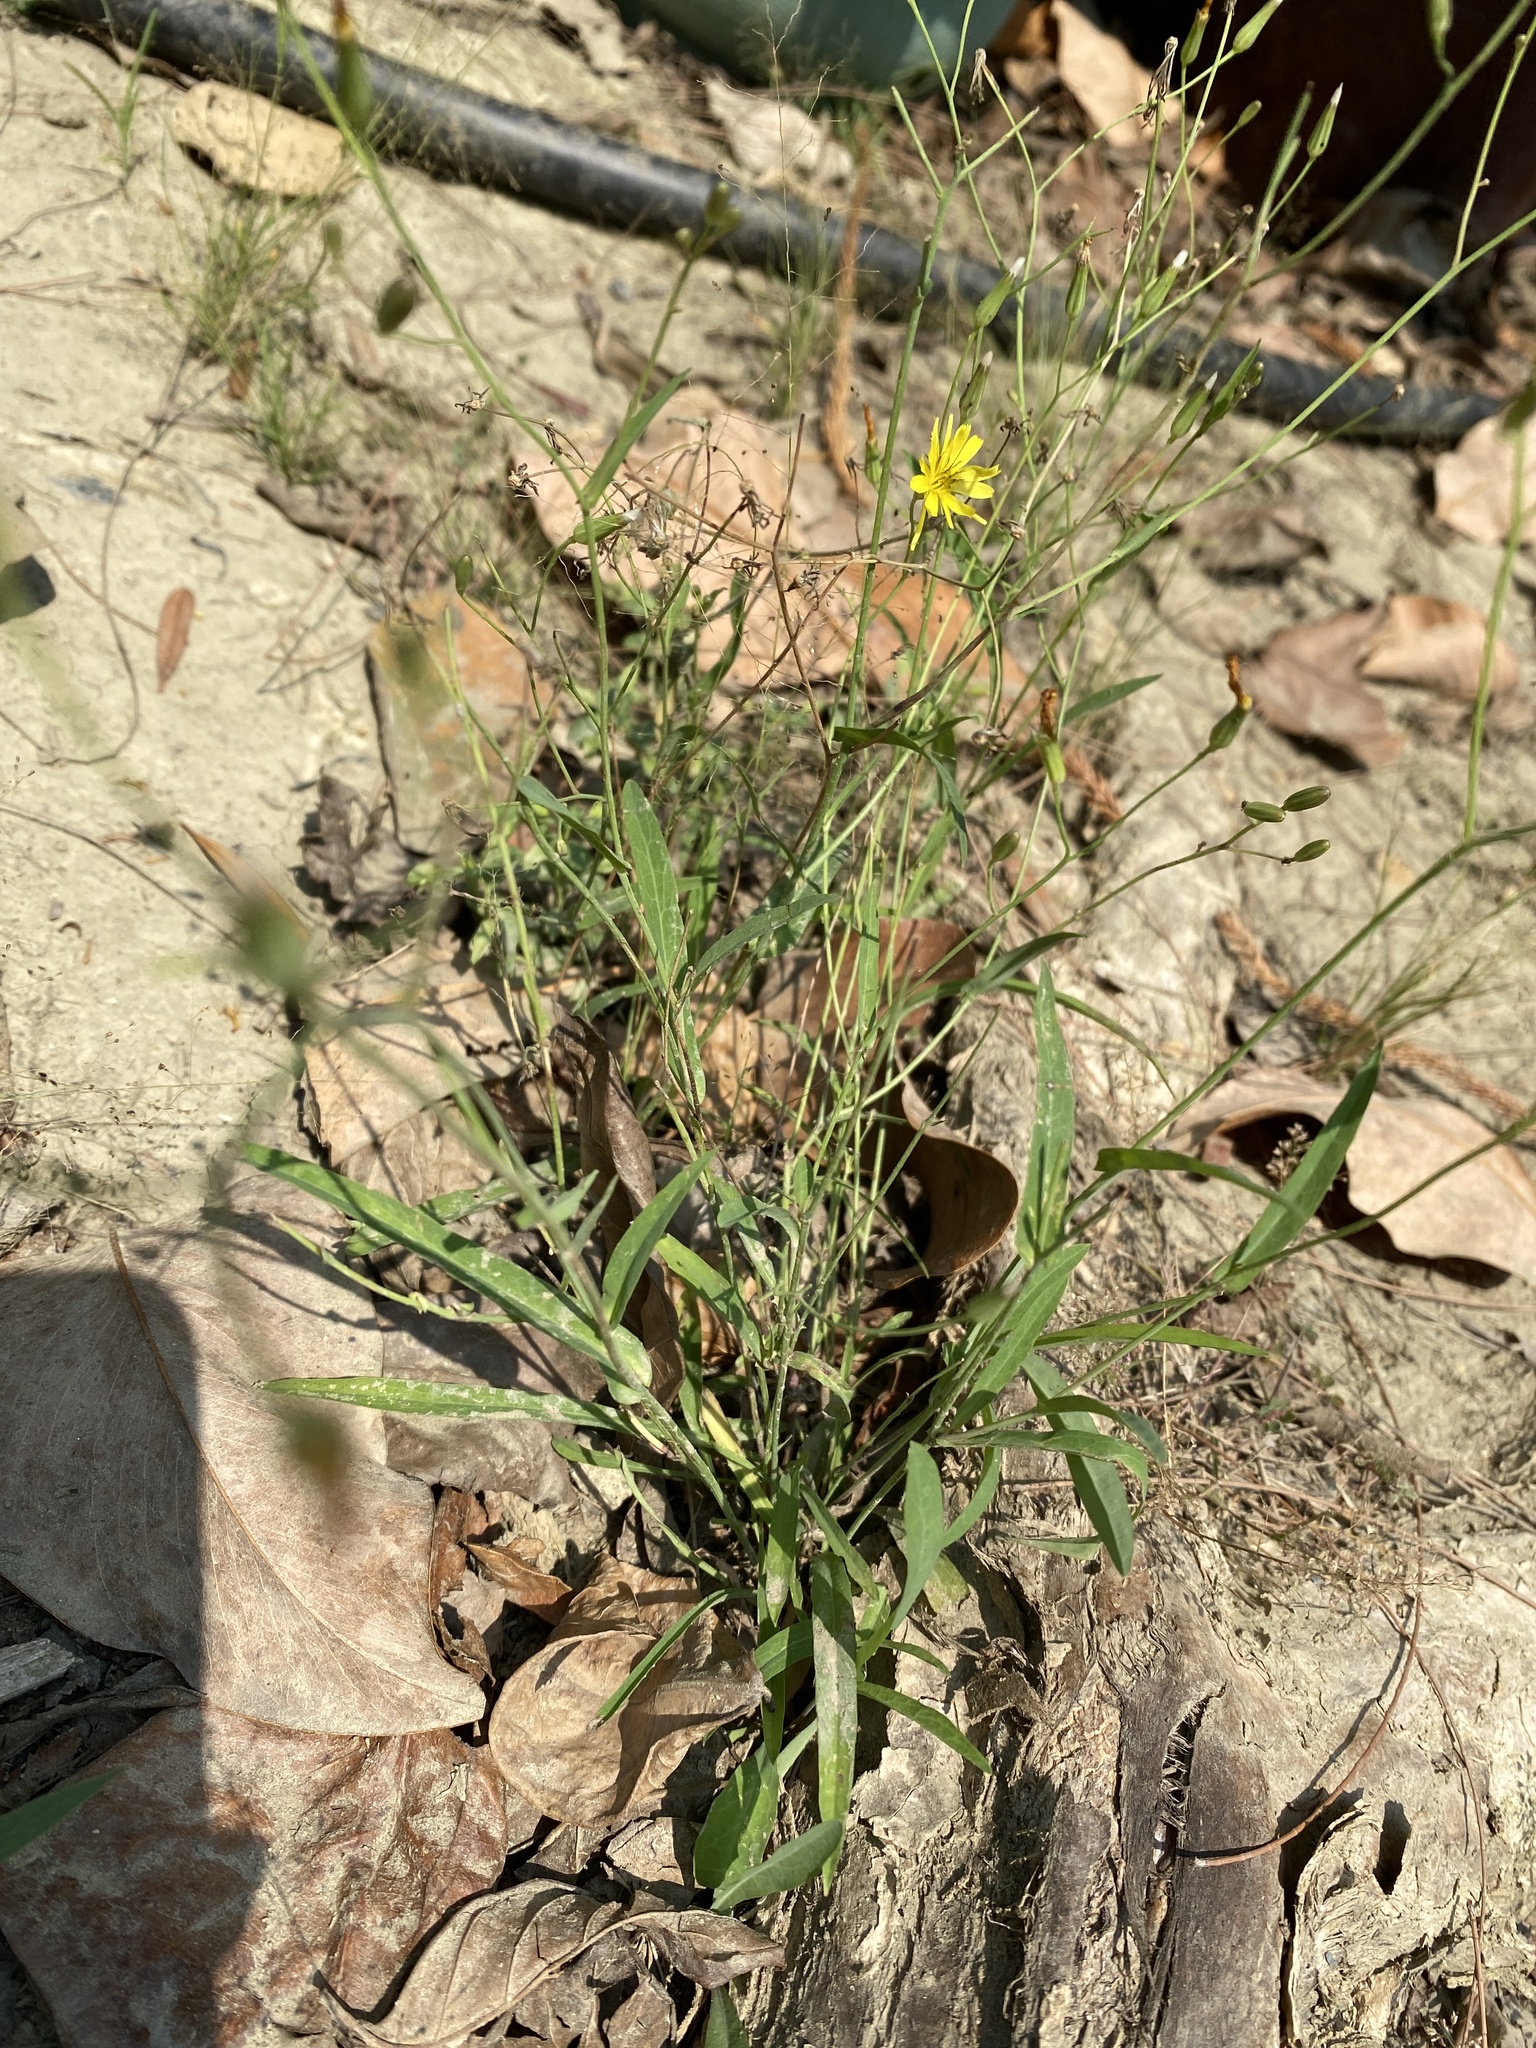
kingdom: Plantae
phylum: Tracheophyta
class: Magnoliopsida
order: Asterales
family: Asteraceae
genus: Ixeris
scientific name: Ixeris chinensis
